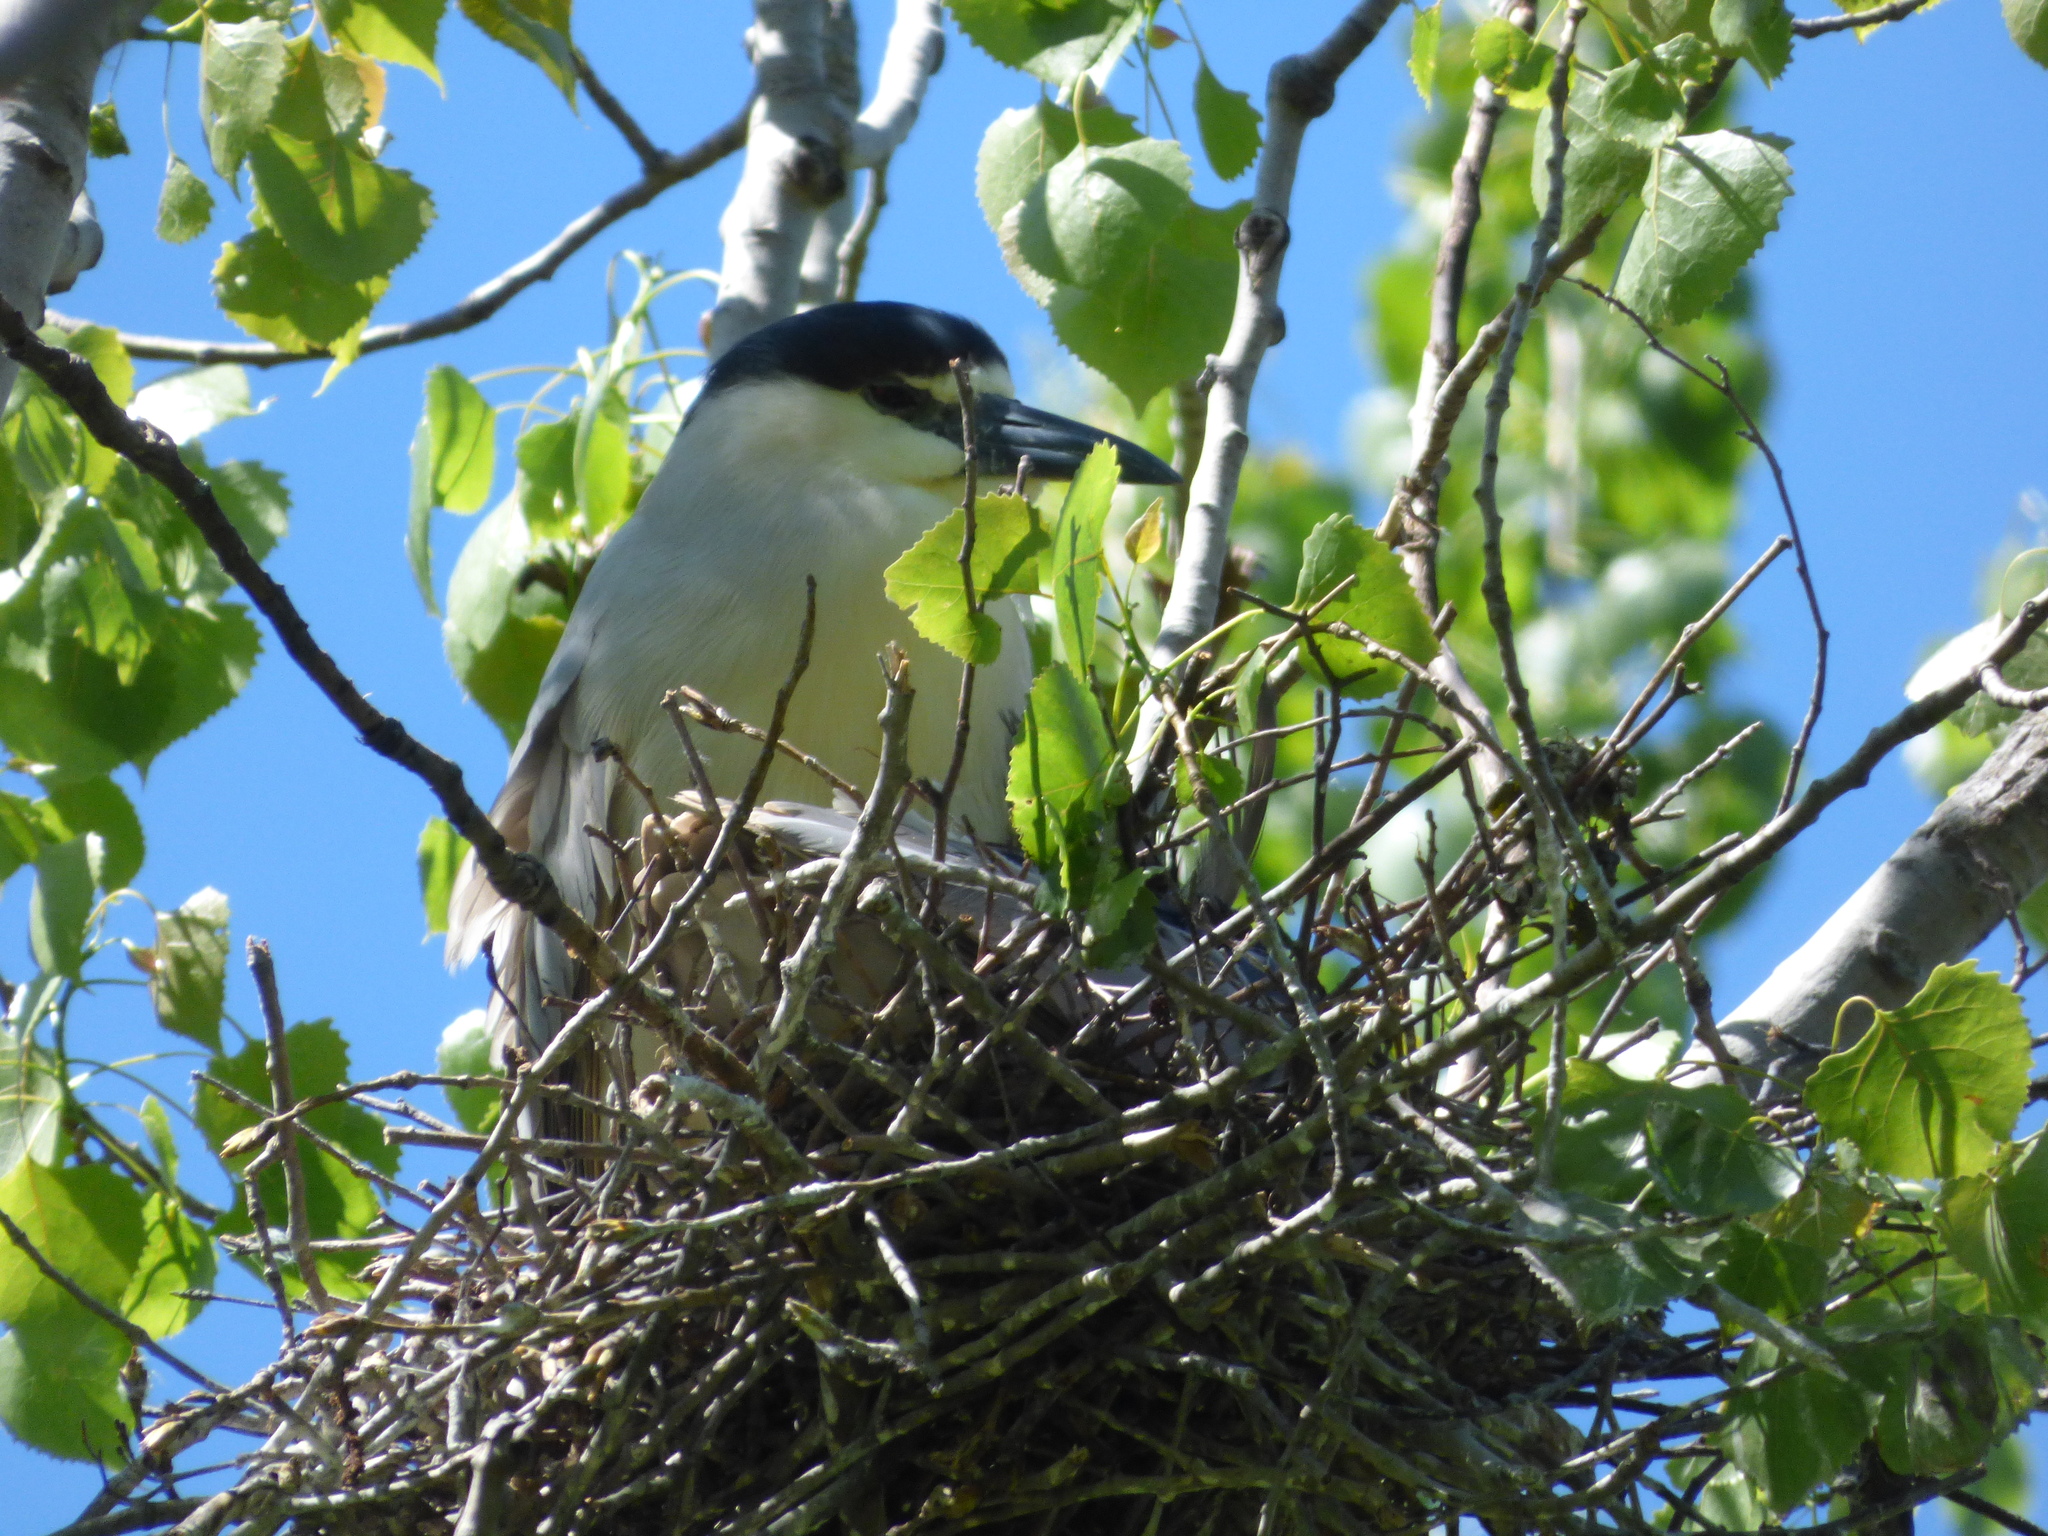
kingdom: Animalia
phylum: Chordata
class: Aves
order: Pelecaniformes
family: Ardeidae
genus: Nycticorax
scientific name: Nycticorax nycticorax
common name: Black-crowned night heron
